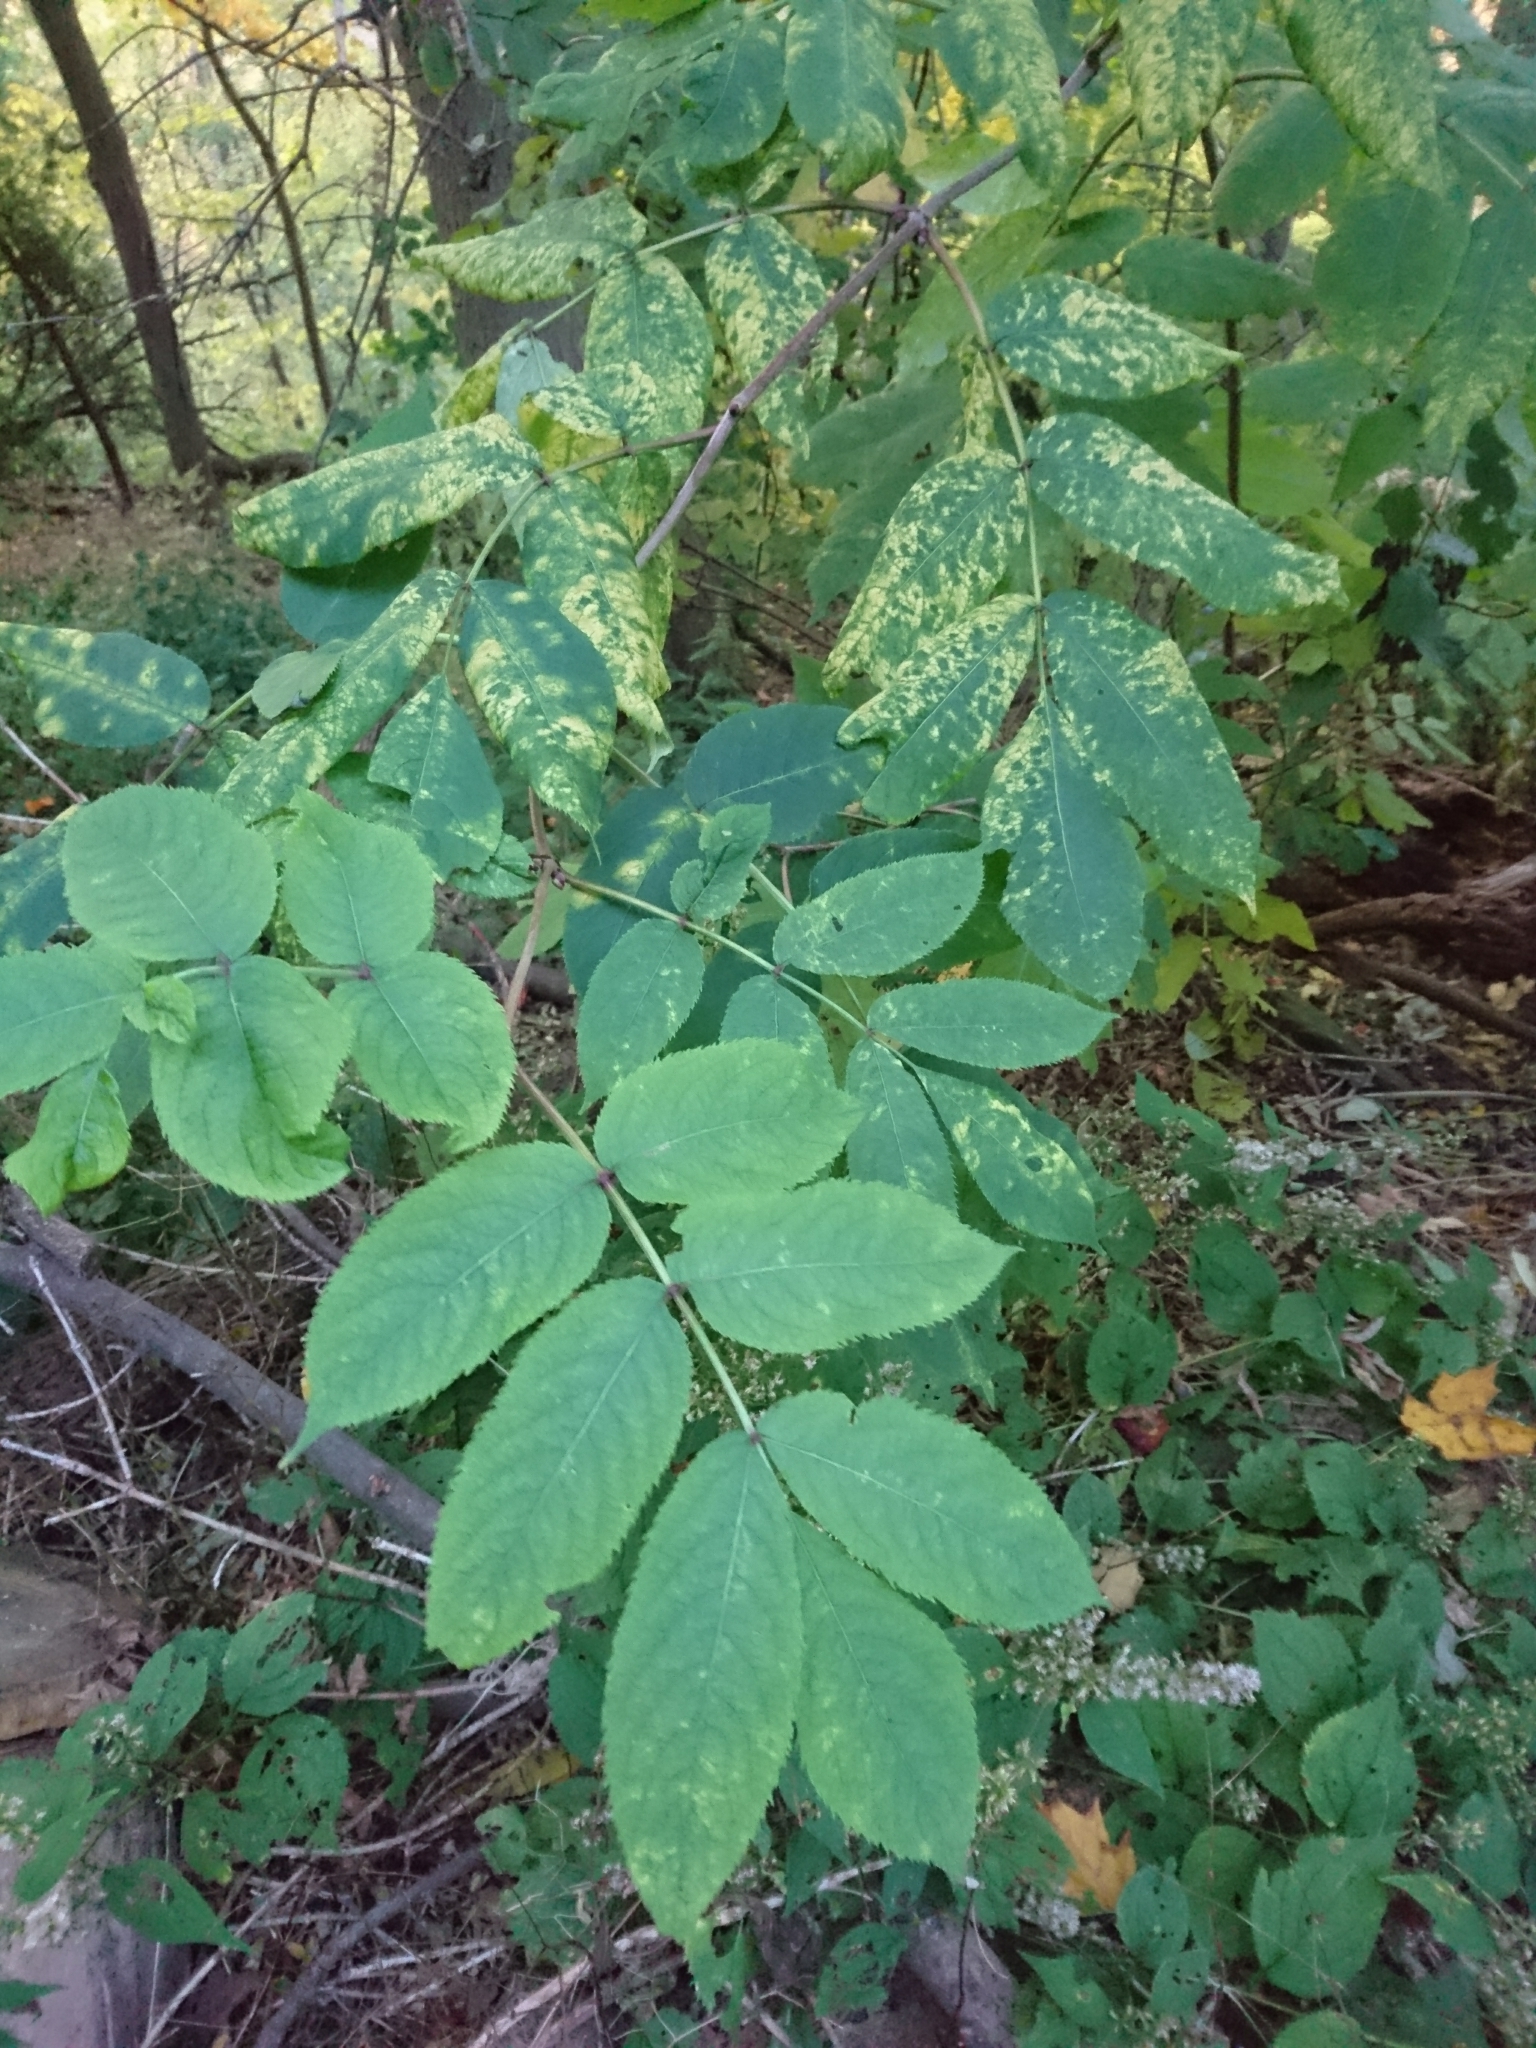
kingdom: Plantae
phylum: Tracheophyta
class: Magnoliopsida
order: Dipsacales
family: Viburnaceae
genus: Sambucus
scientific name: Sambucus
